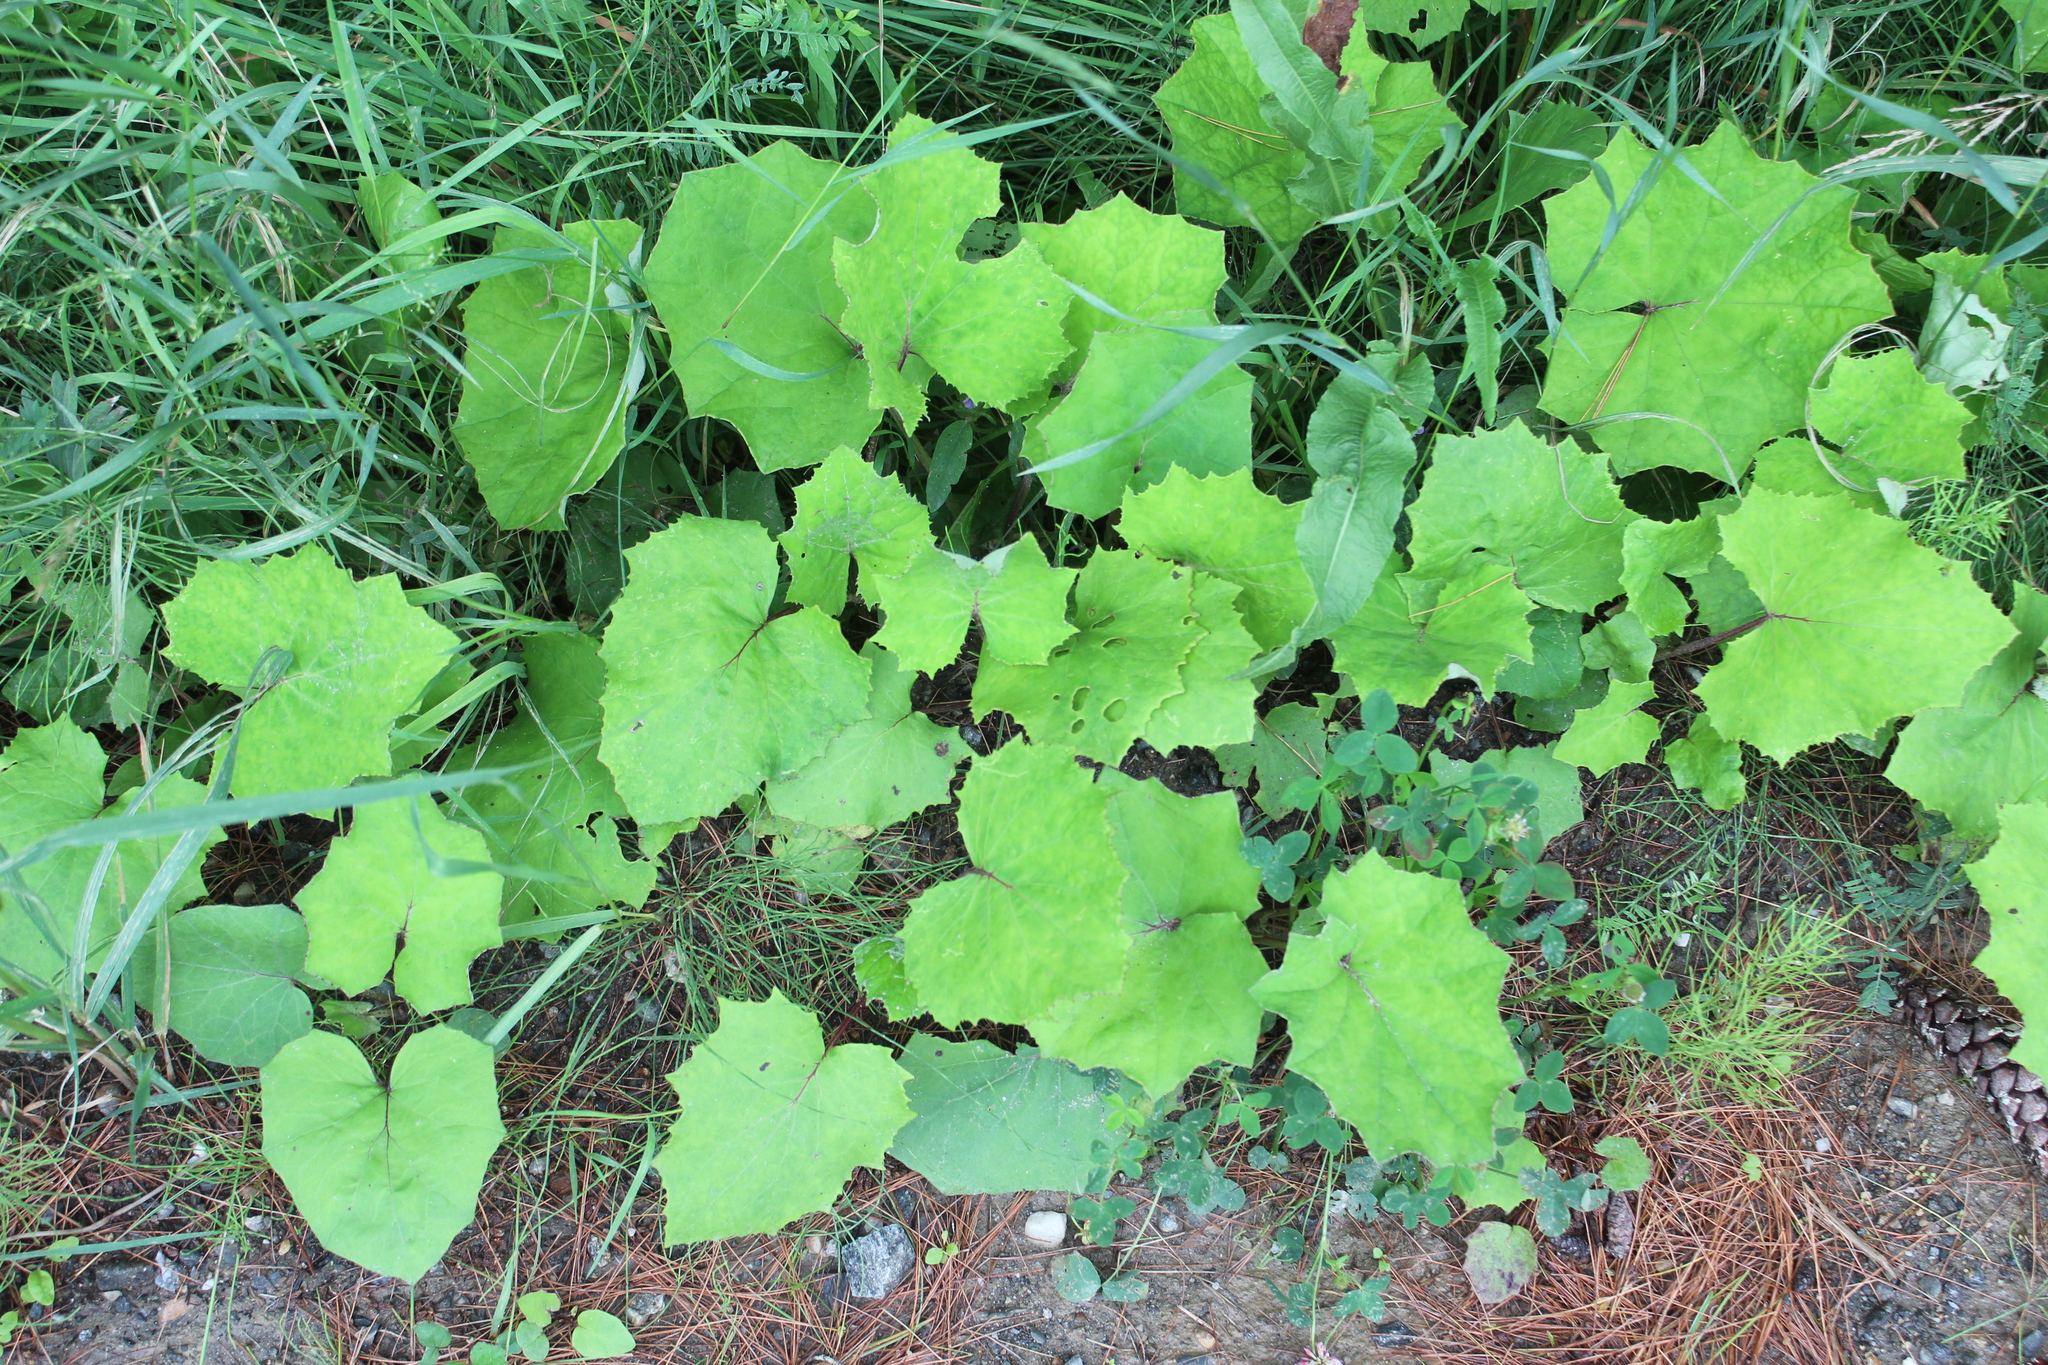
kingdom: Plantae
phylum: Tracheophyta
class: Magnoliopsida
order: Asterales
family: Asteraceae
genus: Tussilago
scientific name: Tussilago farfara
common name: Coltsfoot
